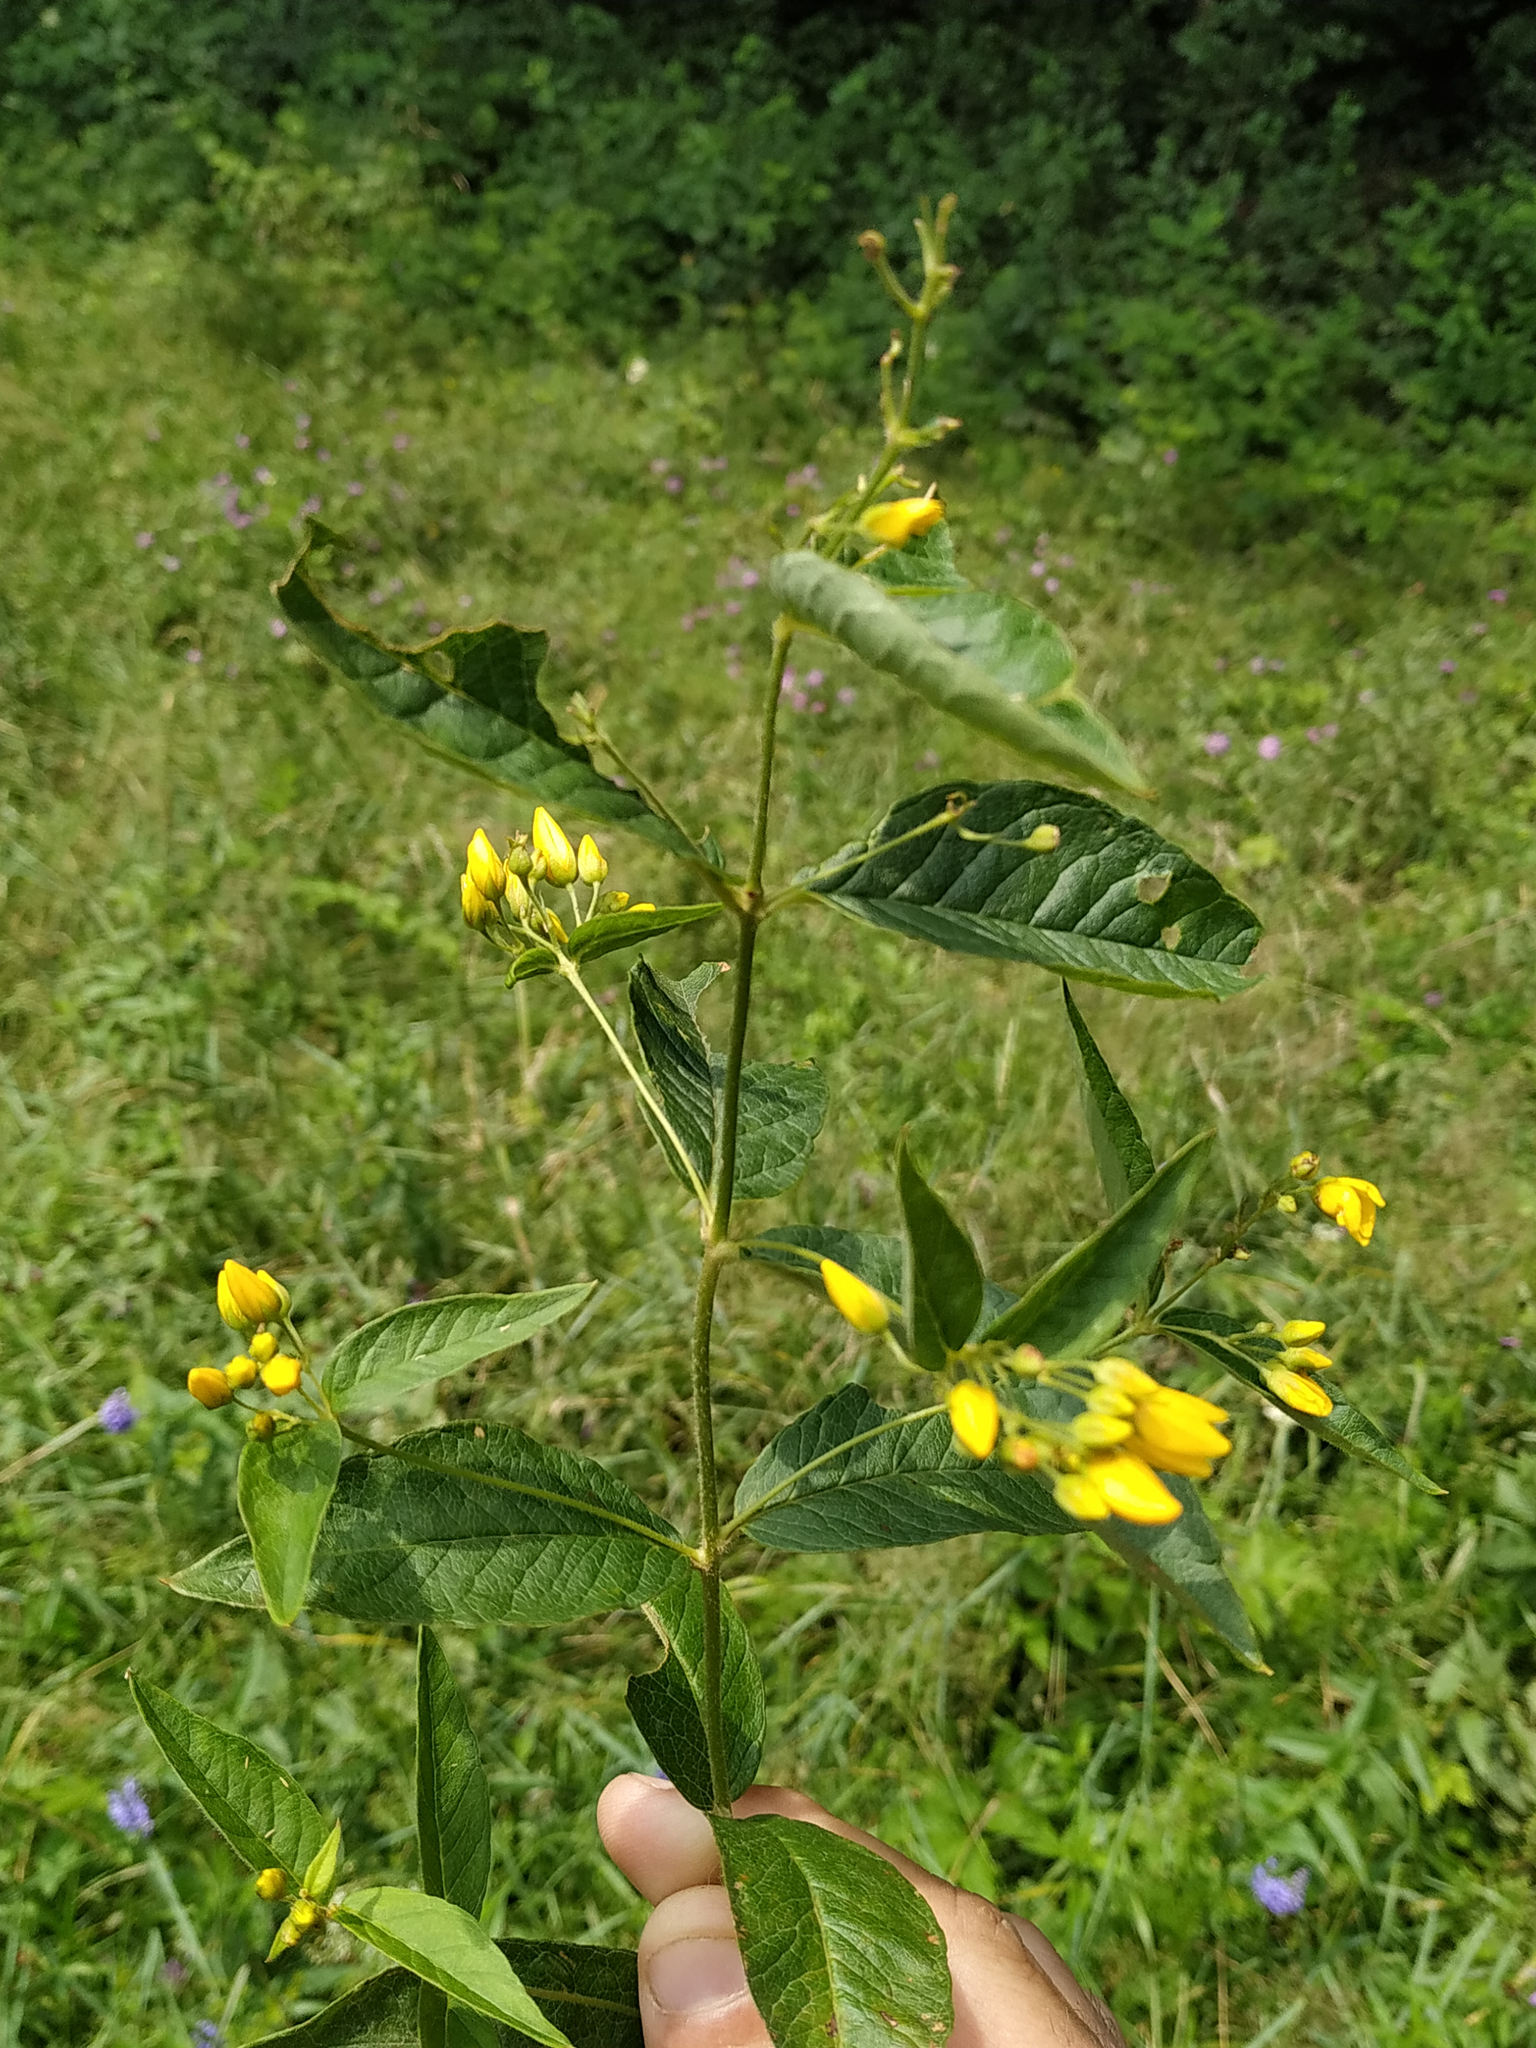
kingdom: Plantae
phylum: Tracheophyta
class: Magnoliopsida
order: Ericales
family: Primulaceae
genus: Lysimachia
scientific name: Lysimachia vulgaris
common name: Yellow loosestrife
